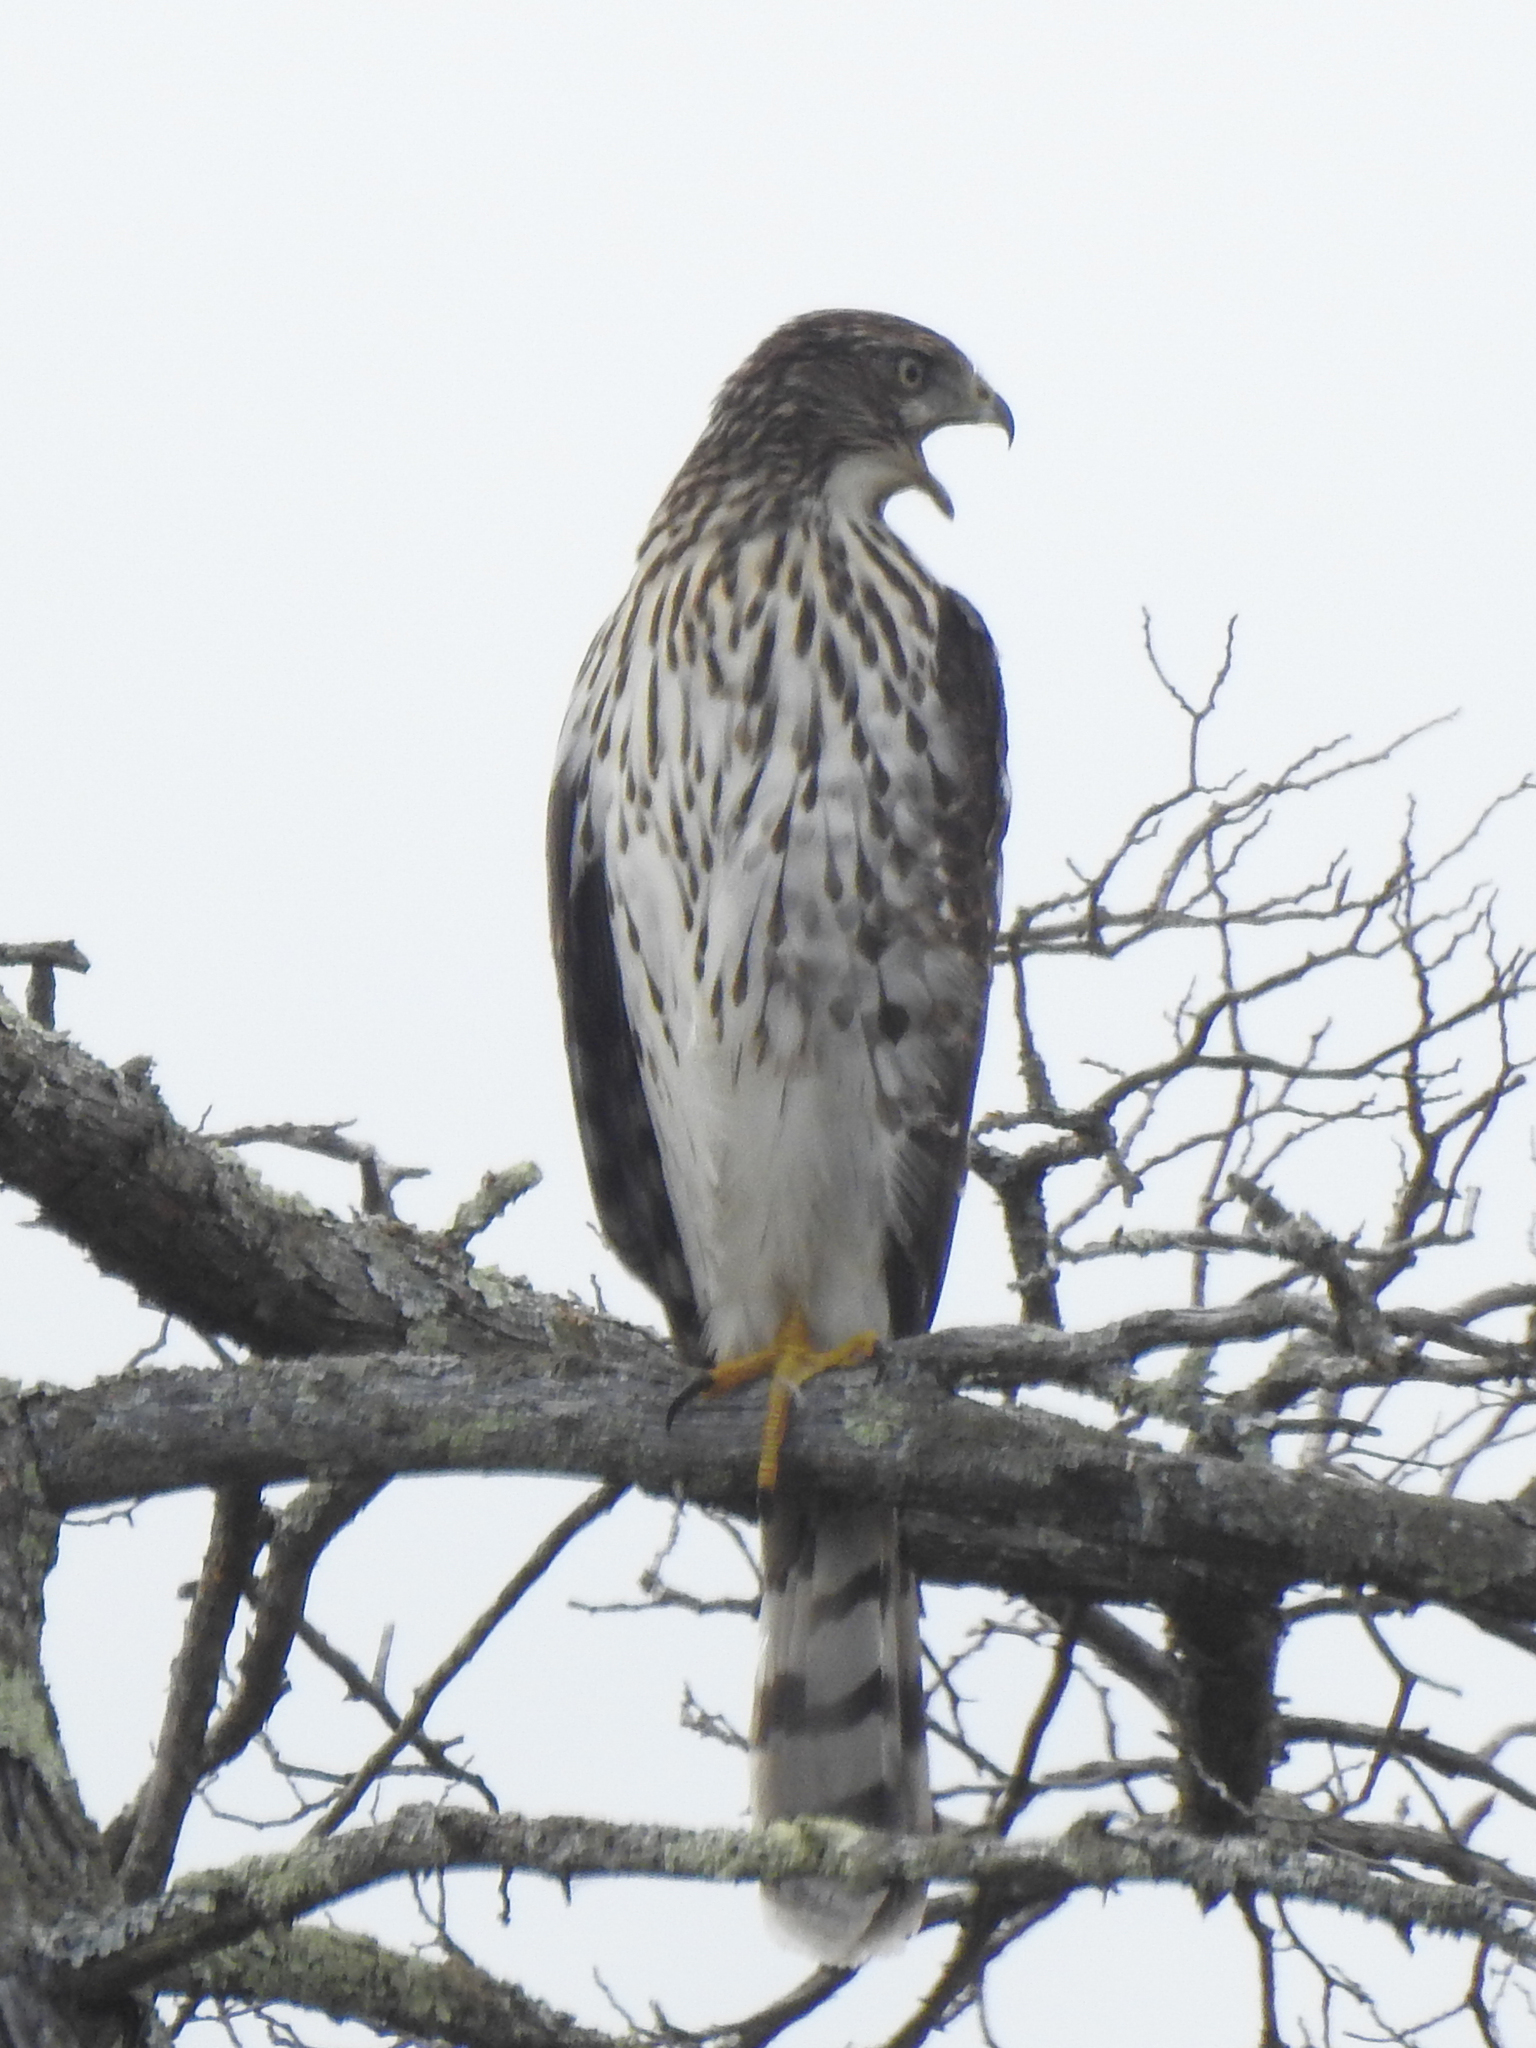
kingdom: Animalia
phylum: Chordata
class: Aves
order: Accipitriformes
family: Accipitridae
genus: Accipiter
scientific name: Accipiter cooperii
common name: Cooper's hawk
